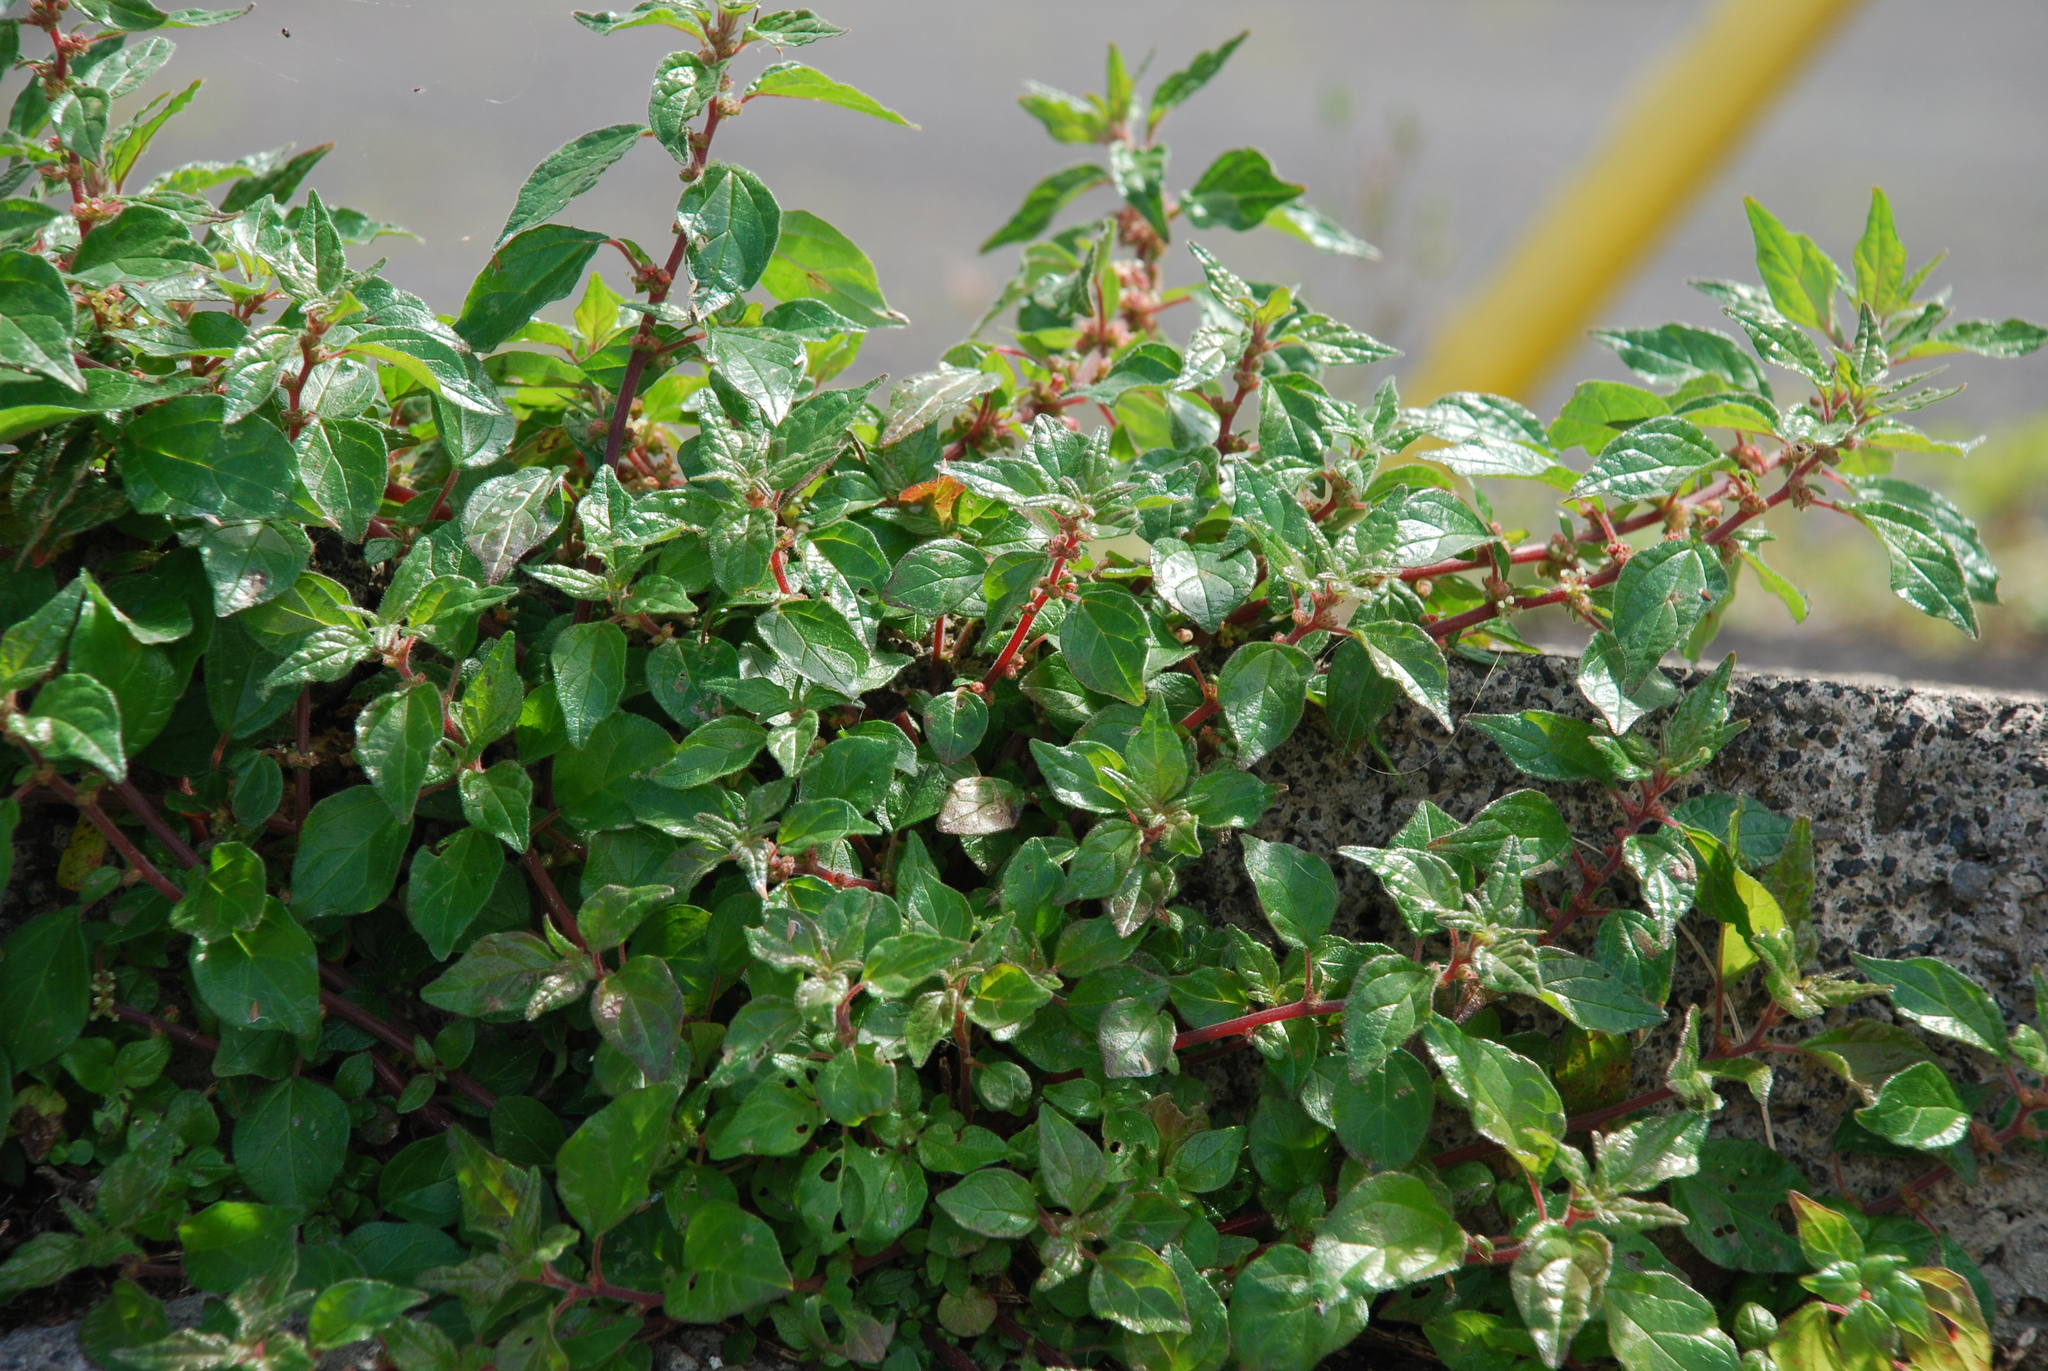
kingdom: Plantae
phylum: Tracheophyta
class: Magnoliopsida
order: Rosales
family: Urticaceae
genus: Parietaria
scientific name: Parietaria judaica
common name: Pellitory-of-the-wall
